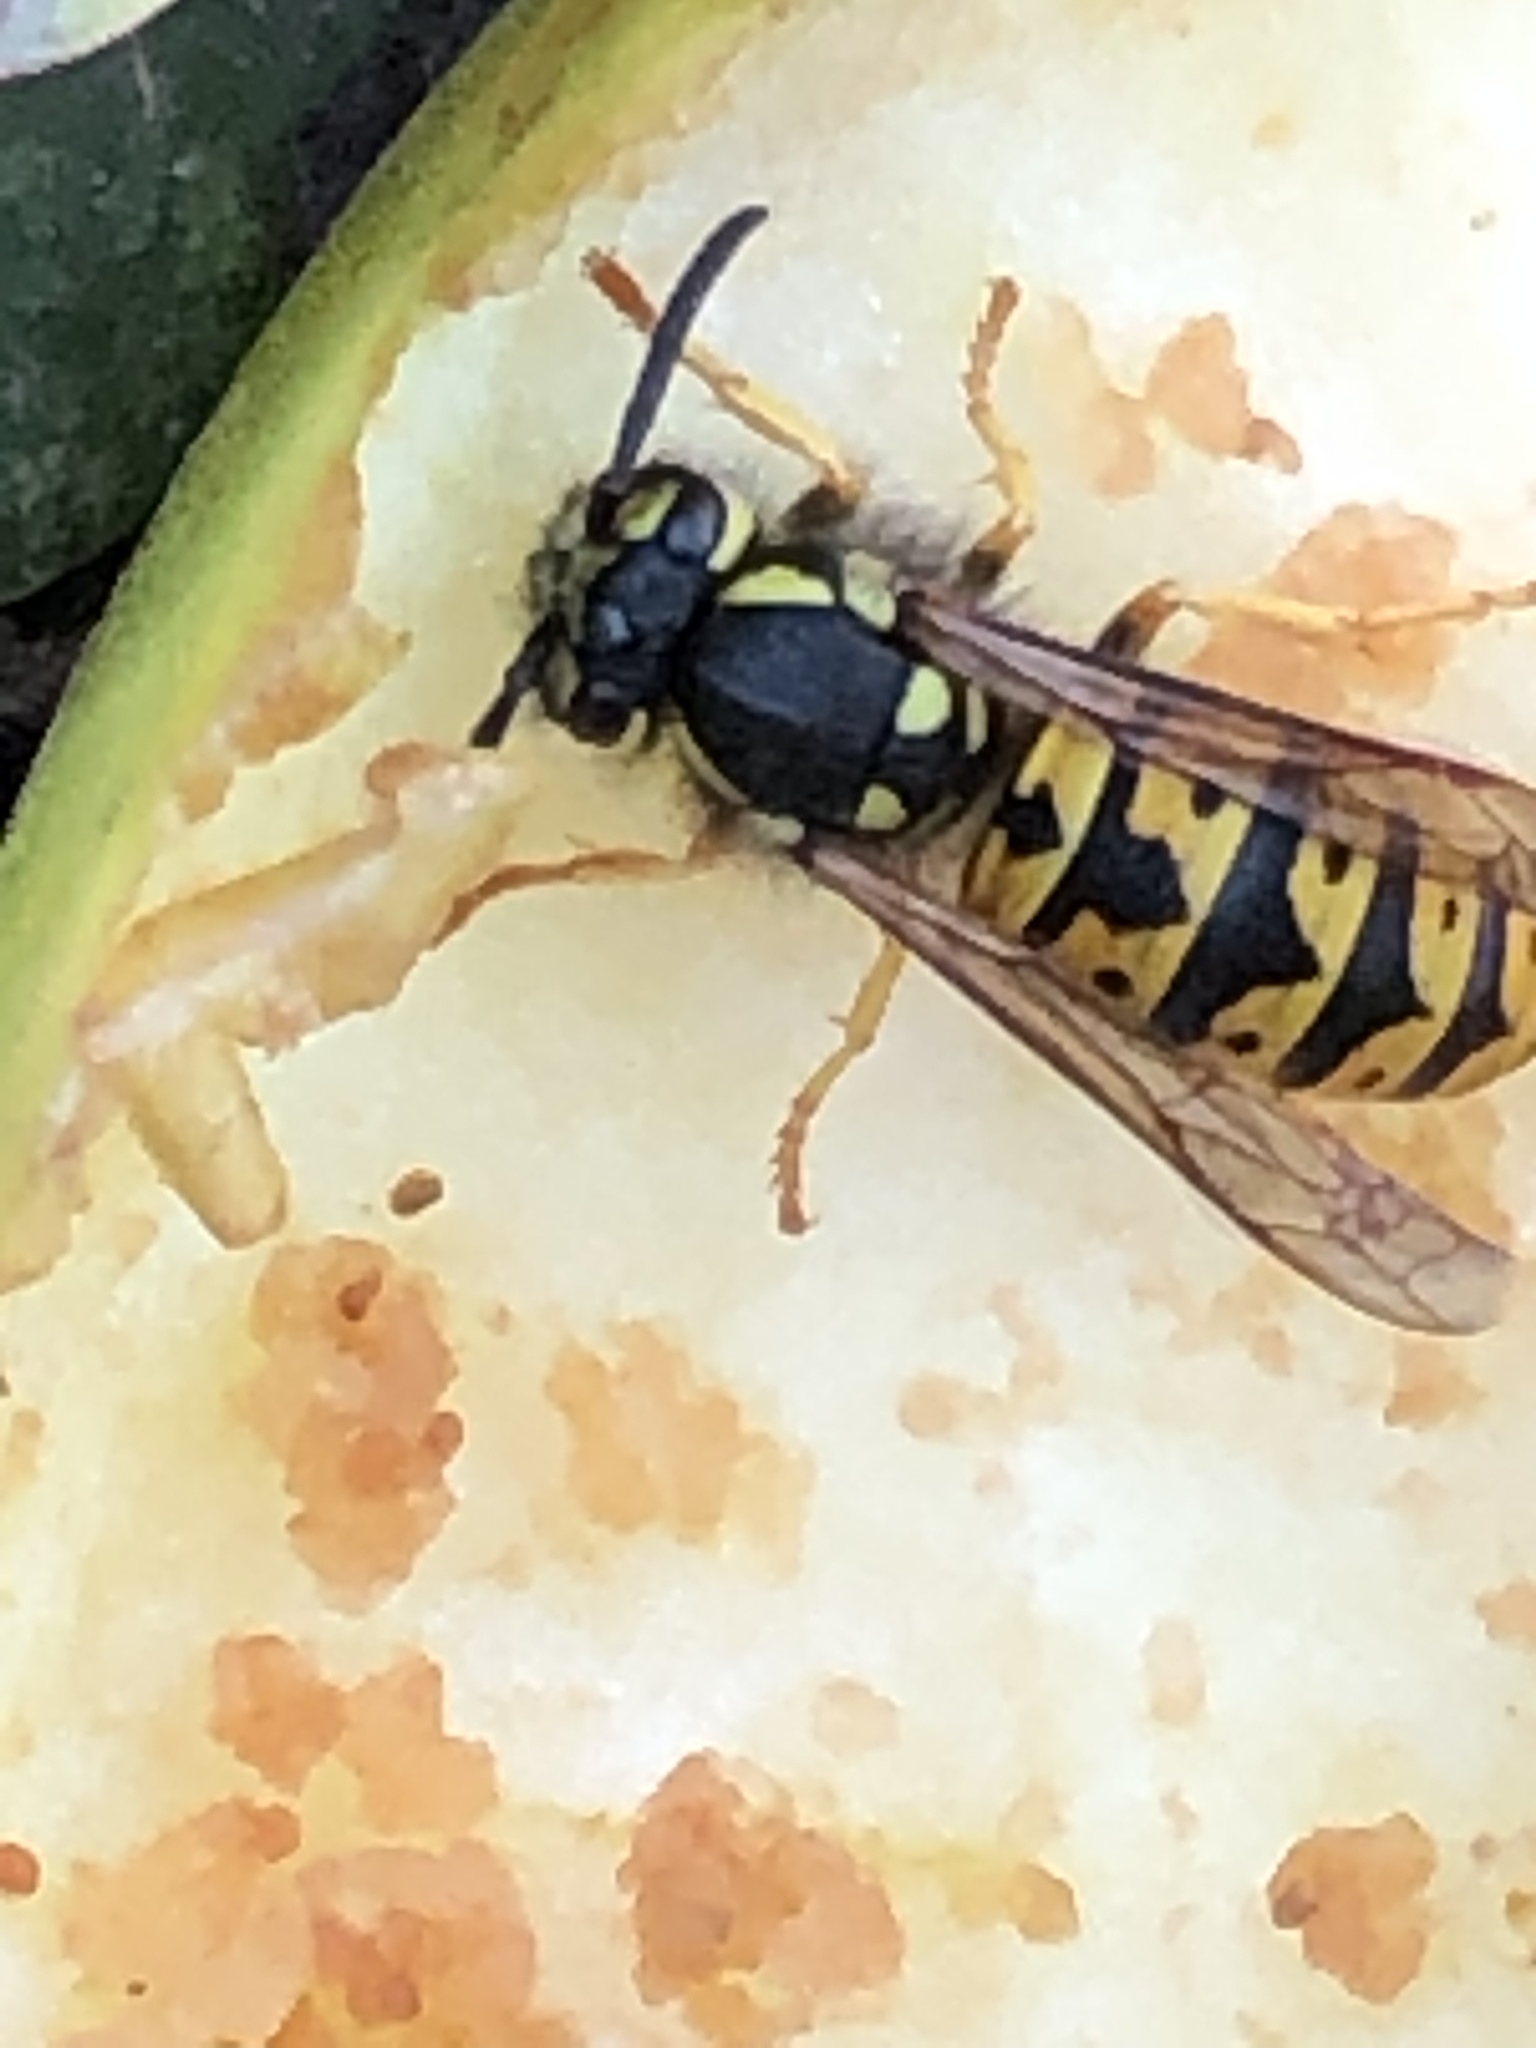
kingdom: Animalia
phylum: Arthropoda
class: Insecta
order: Hymenoptera
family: Vespidae
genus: Vespula
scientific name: Vespula germanica
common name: German wasp
